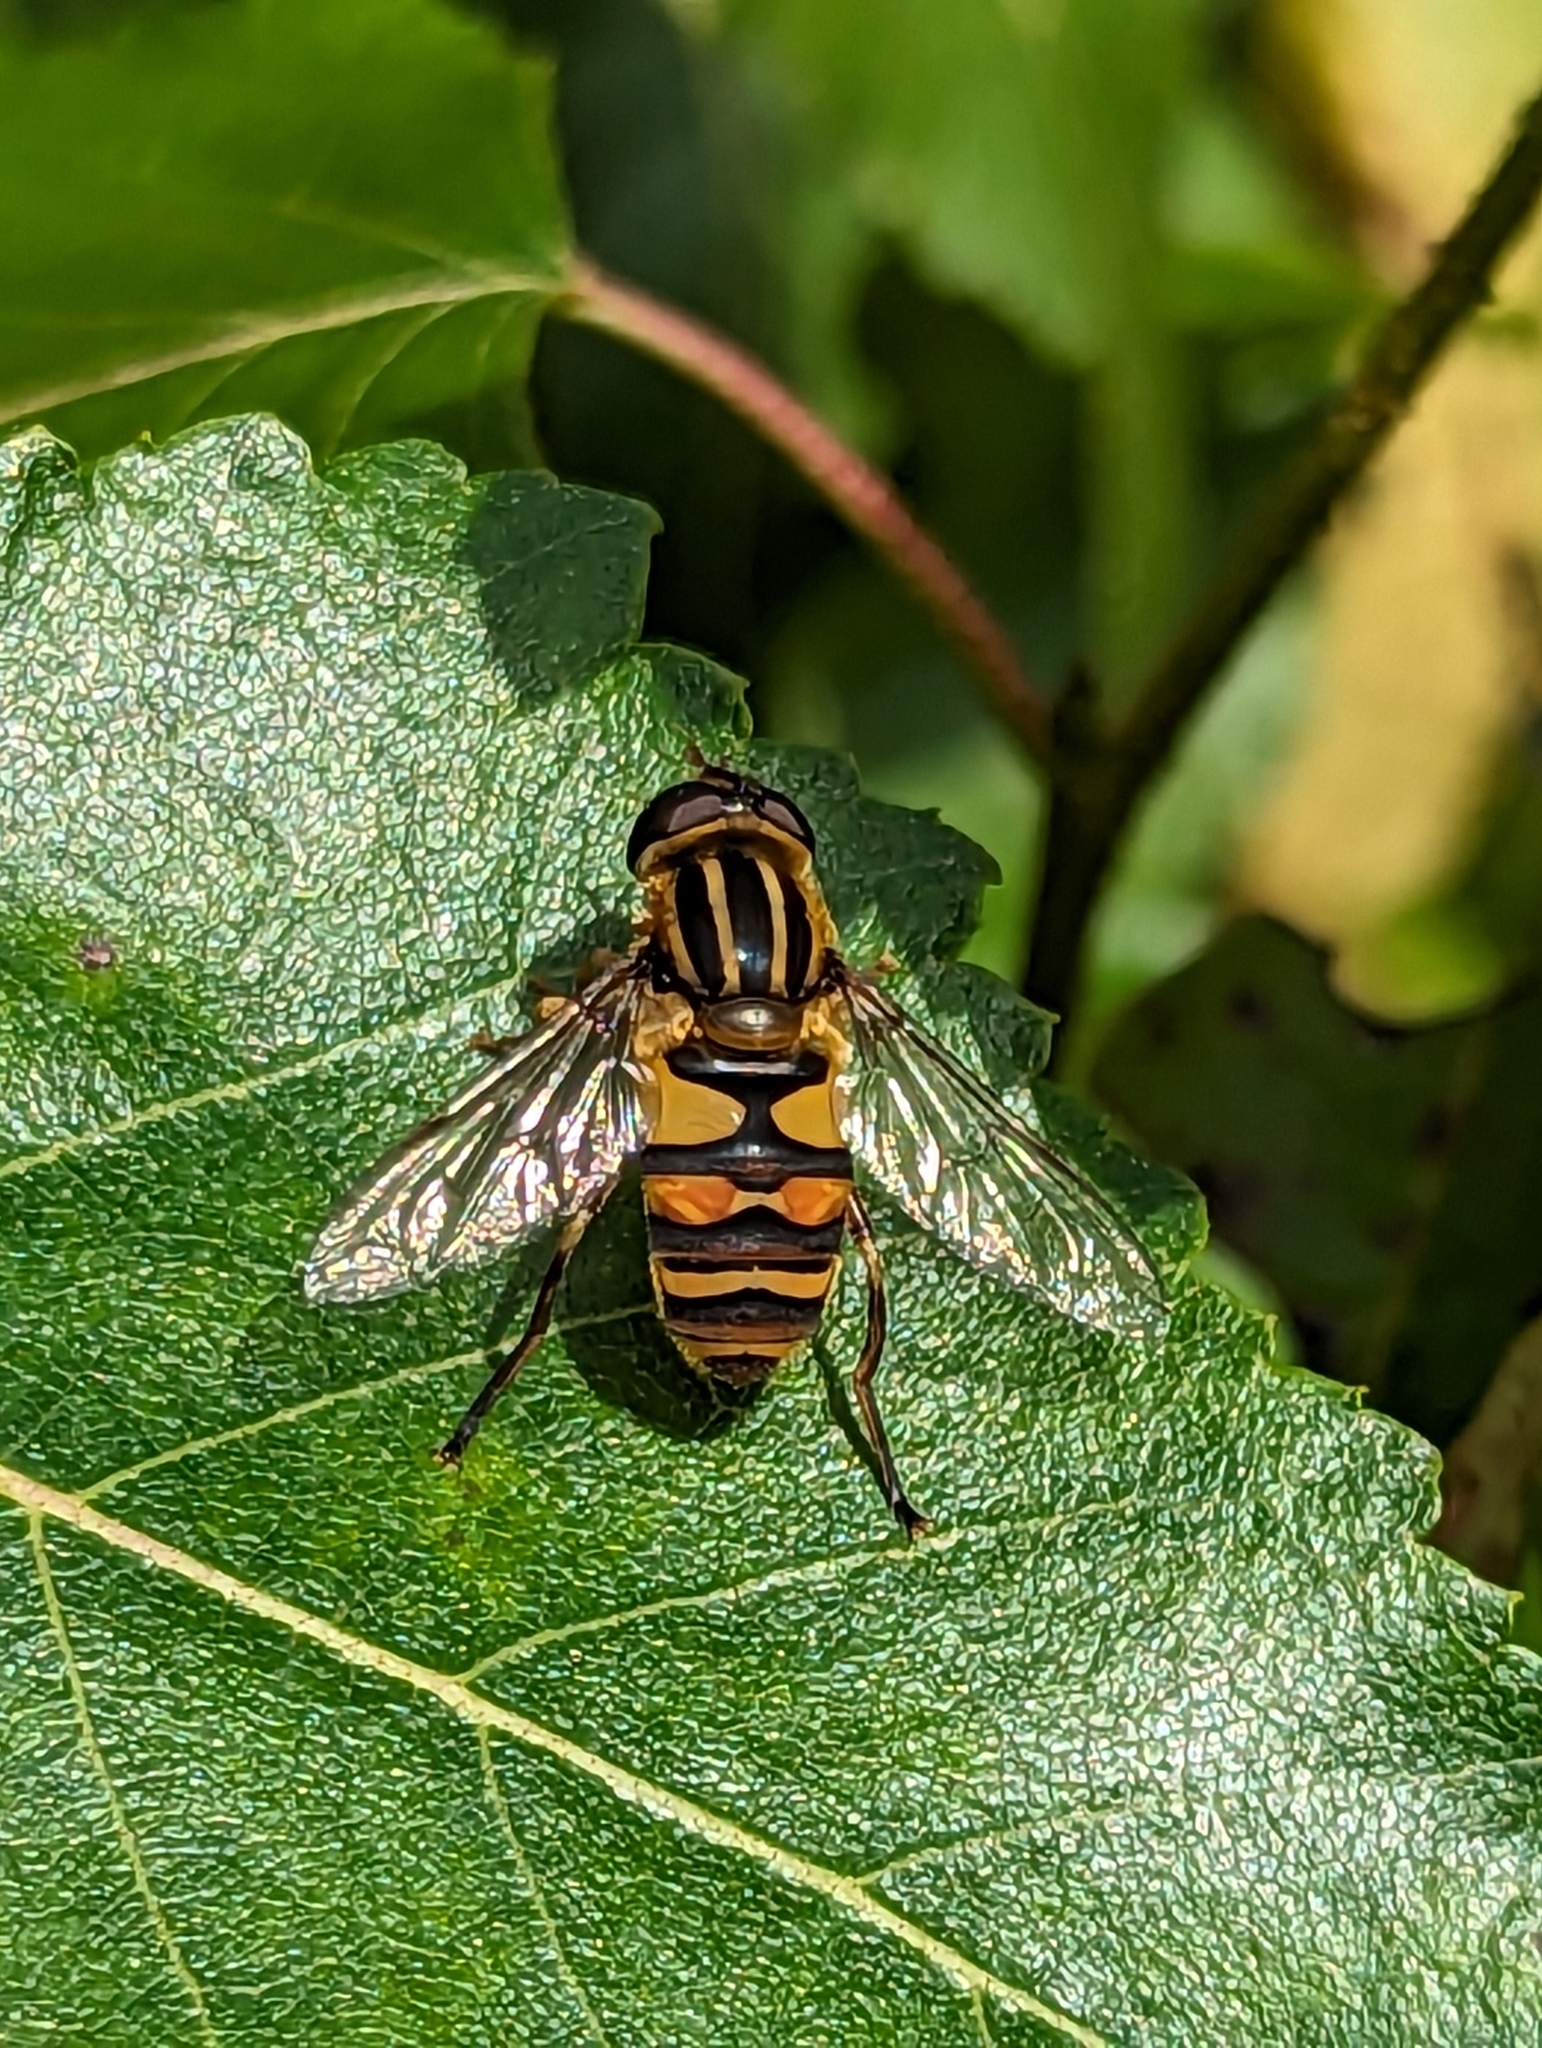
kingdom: Animalia
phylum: Arthropoda
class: Insecta
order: Diptera
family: Syrphidae
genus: Helophilus
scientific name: Helophilus fasciatus
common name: Narrow-headed marsh fly
